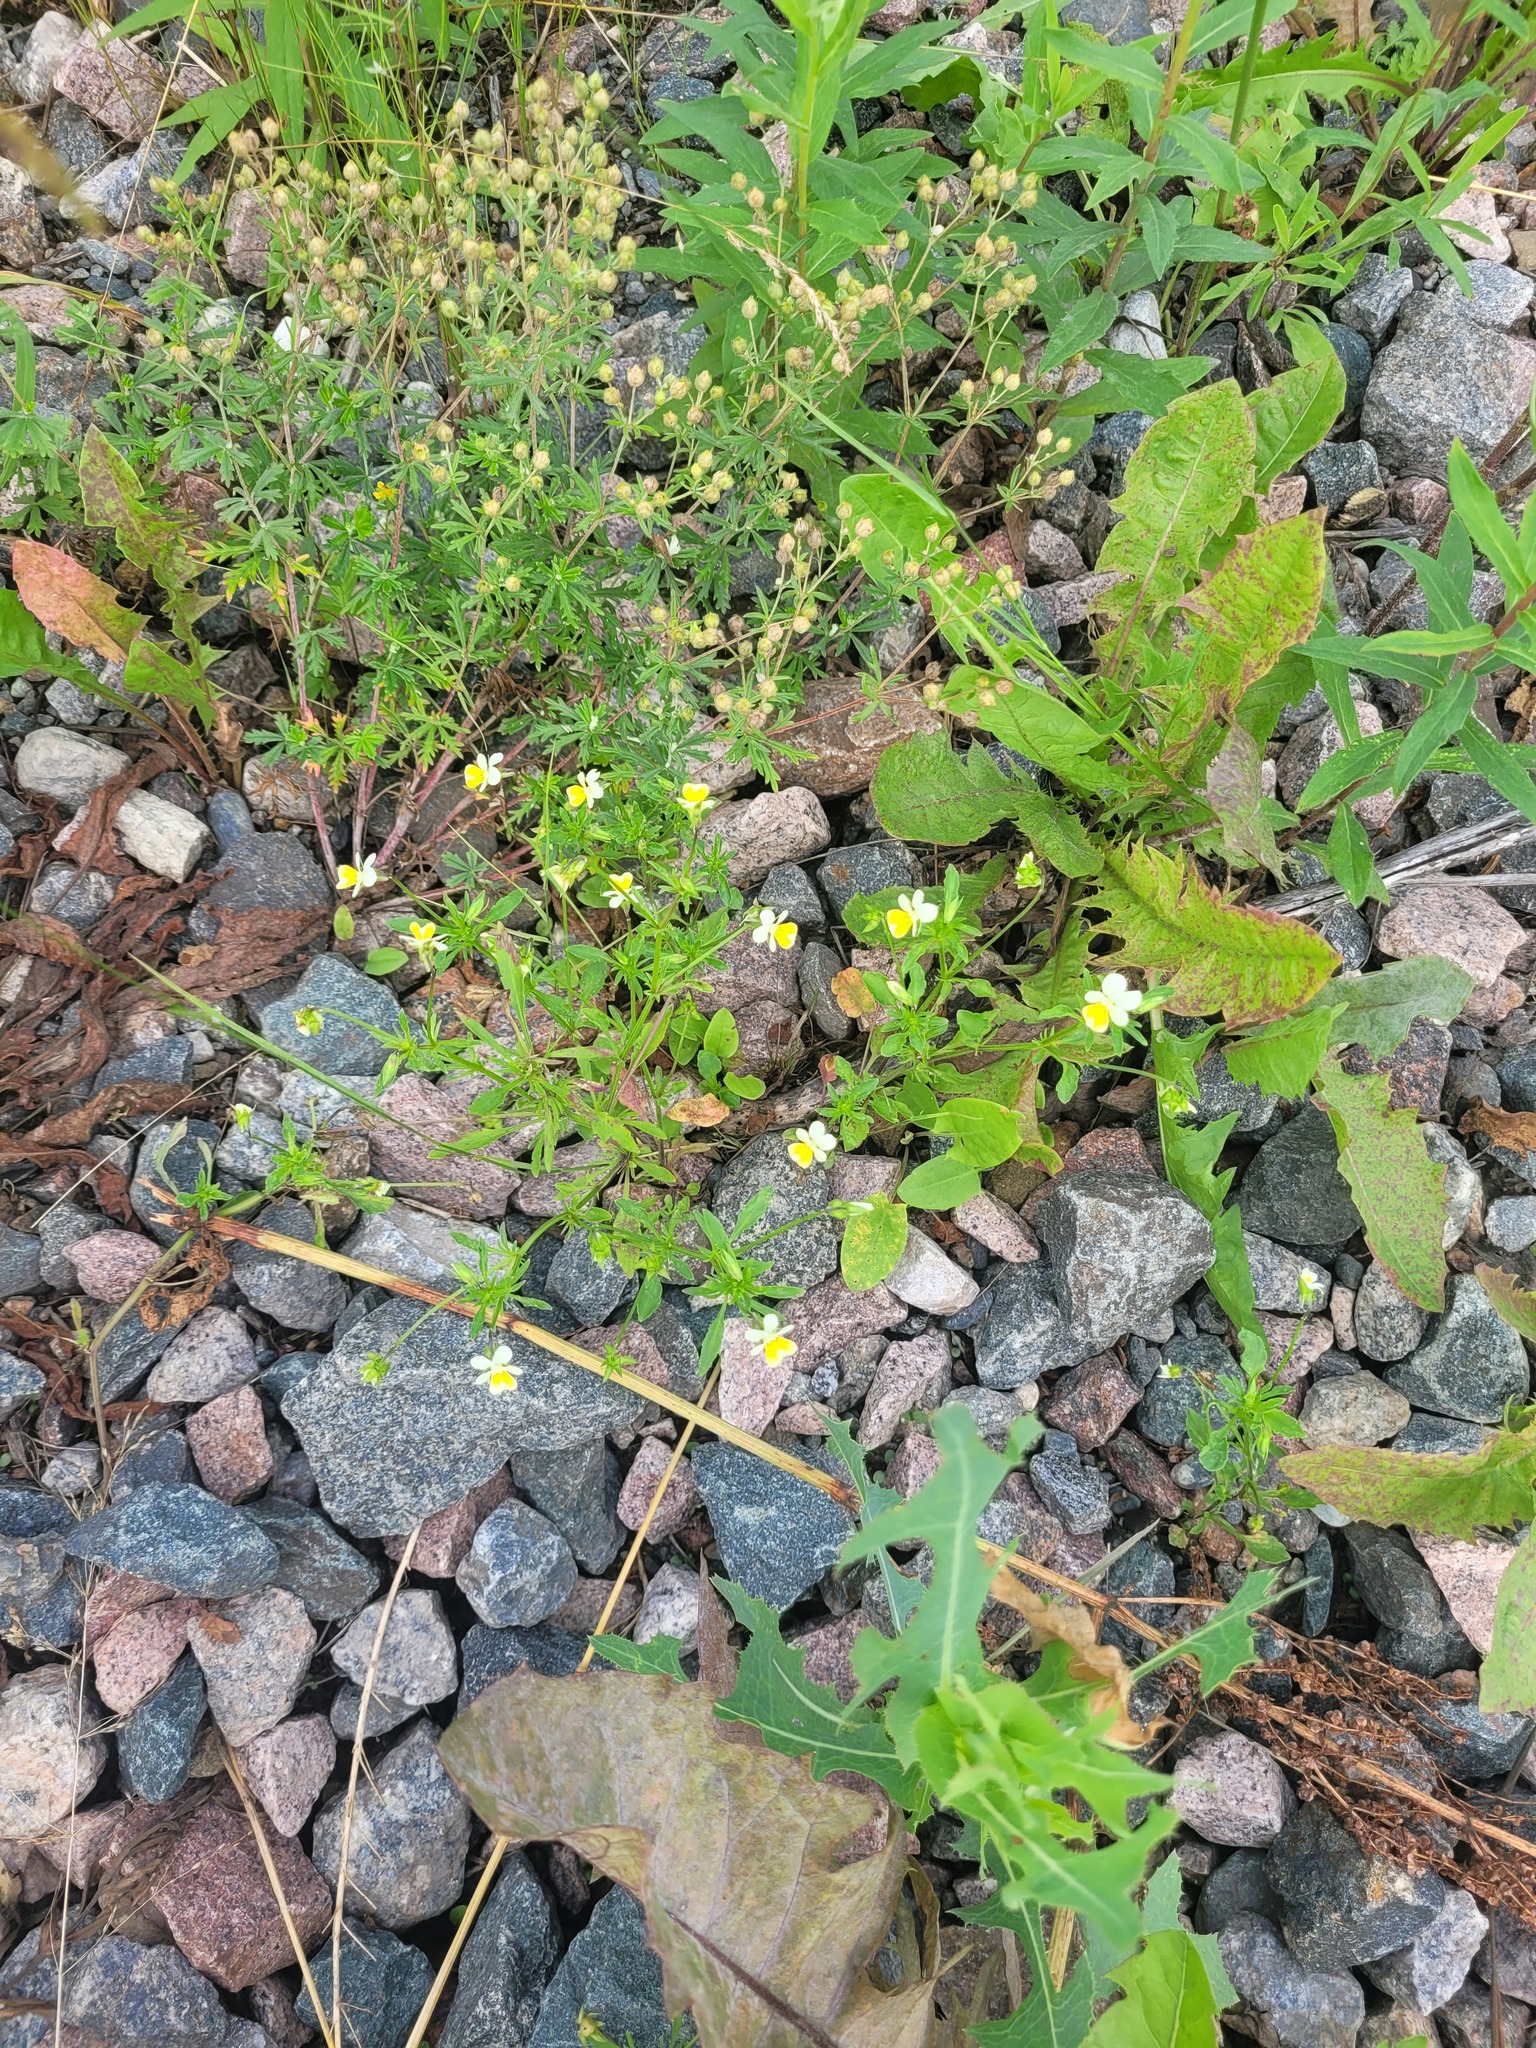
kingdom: Plantae
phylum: Tracheophyta
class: Magnoliopsida
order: Malpighiales
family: Violaceae
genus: Viola
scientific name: Viola contempta
